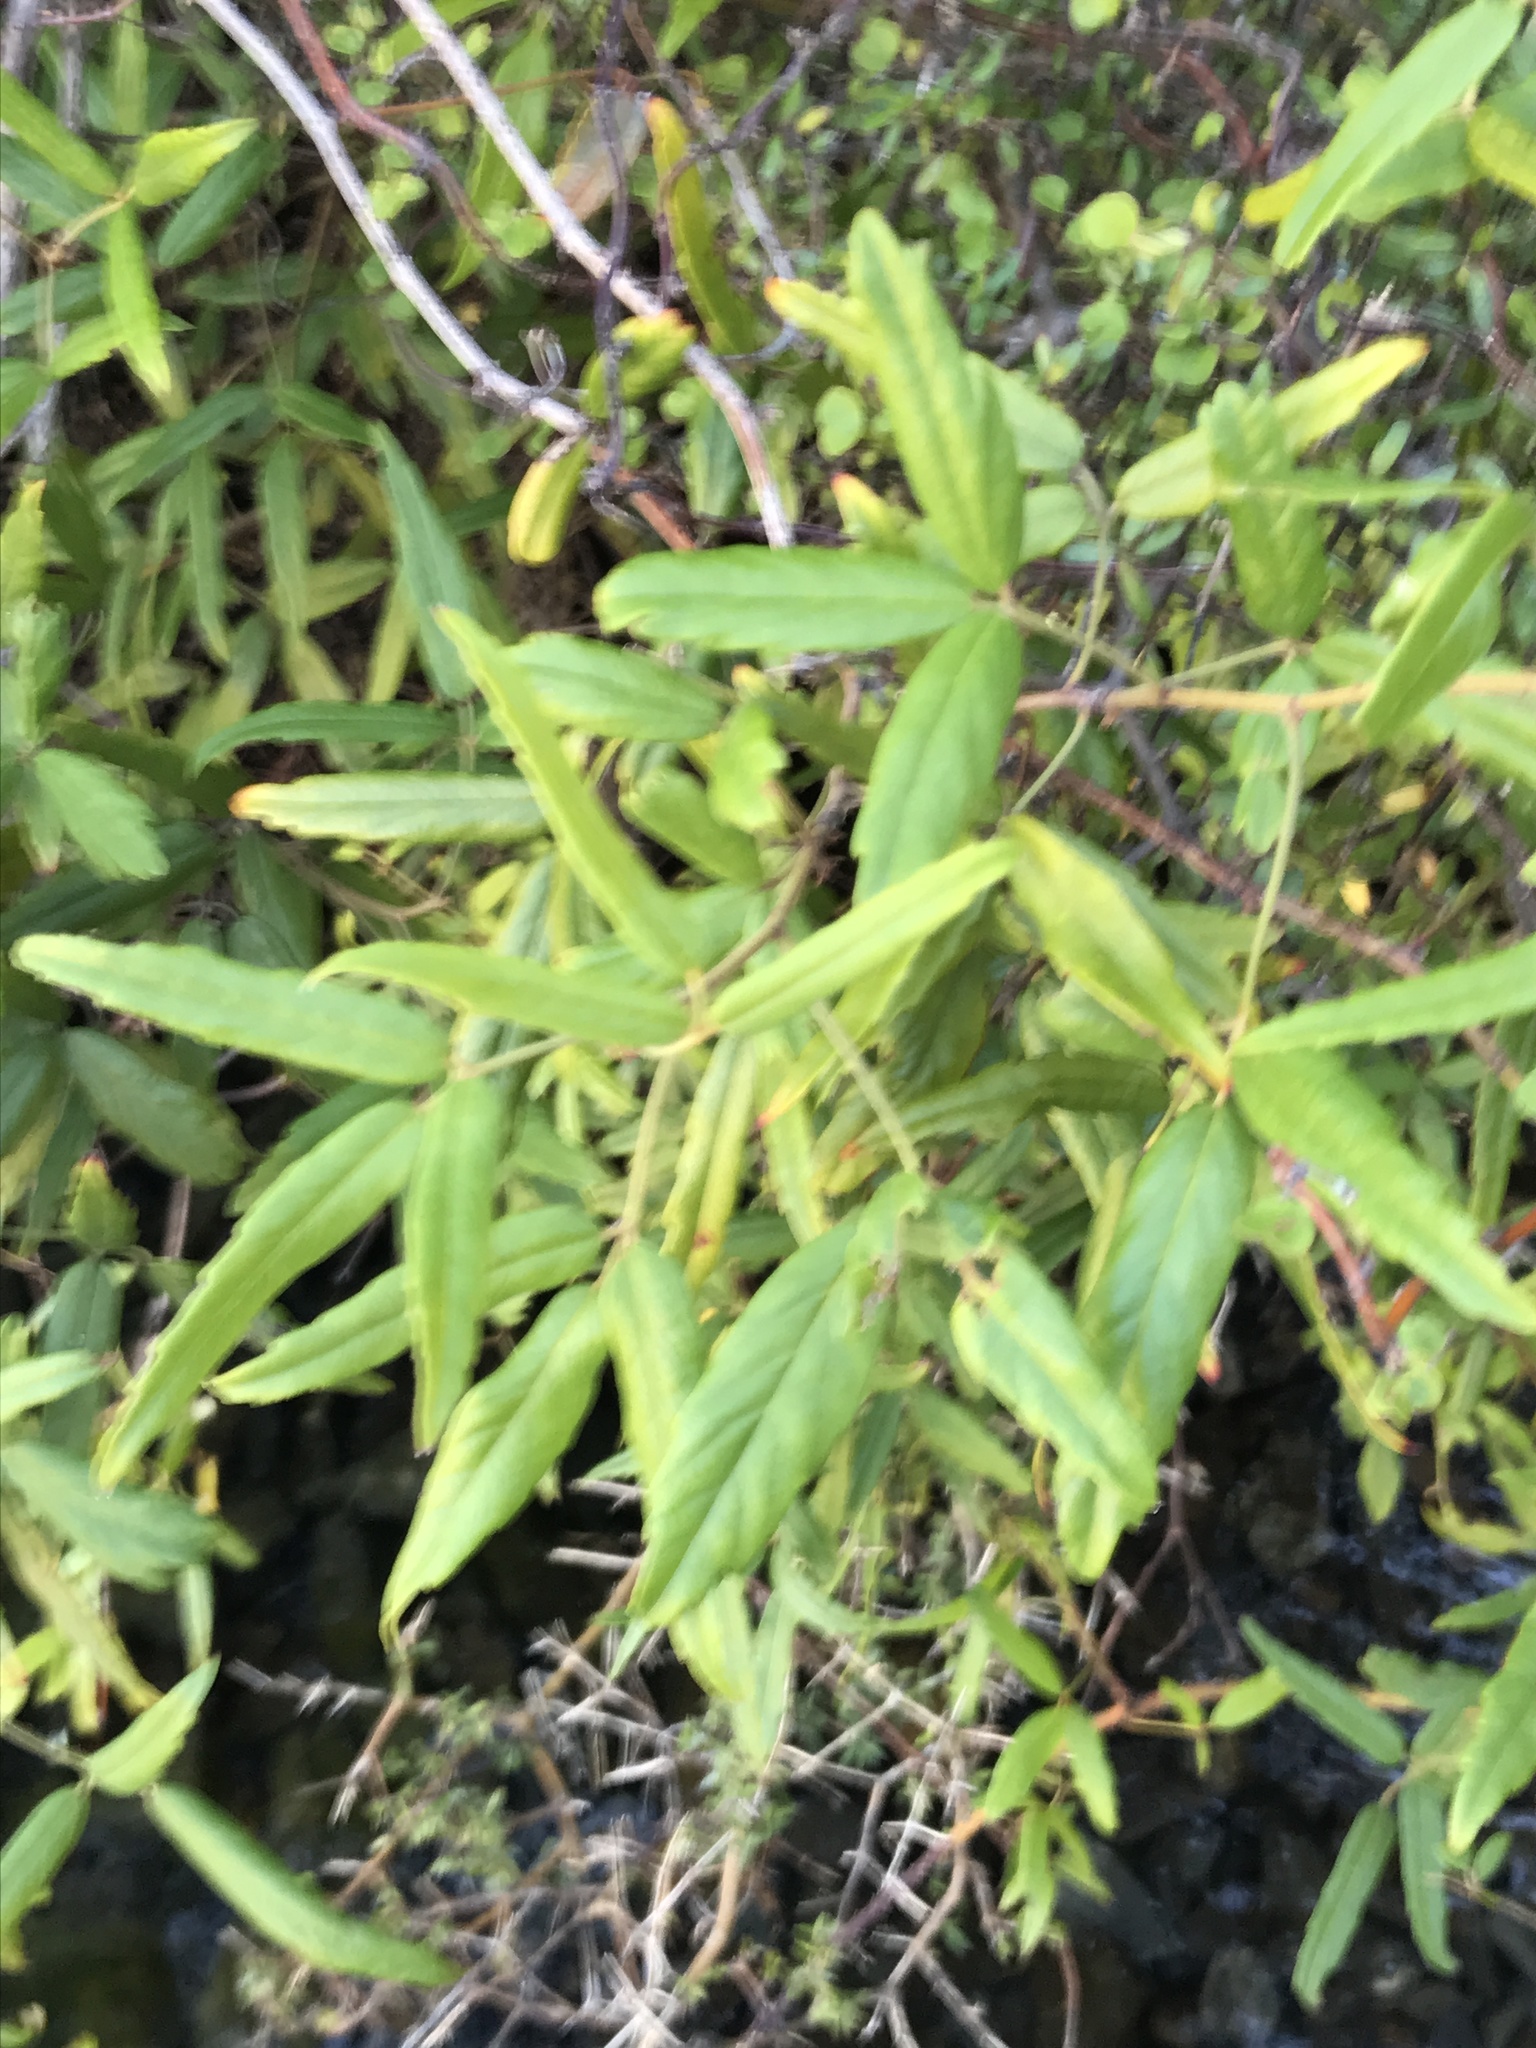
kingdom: Plantae
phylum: Tracheophyta
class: Magnoliopsida
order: Rosales
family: Rosaceae
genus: Rubus
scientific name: Rubus schmidelioides
